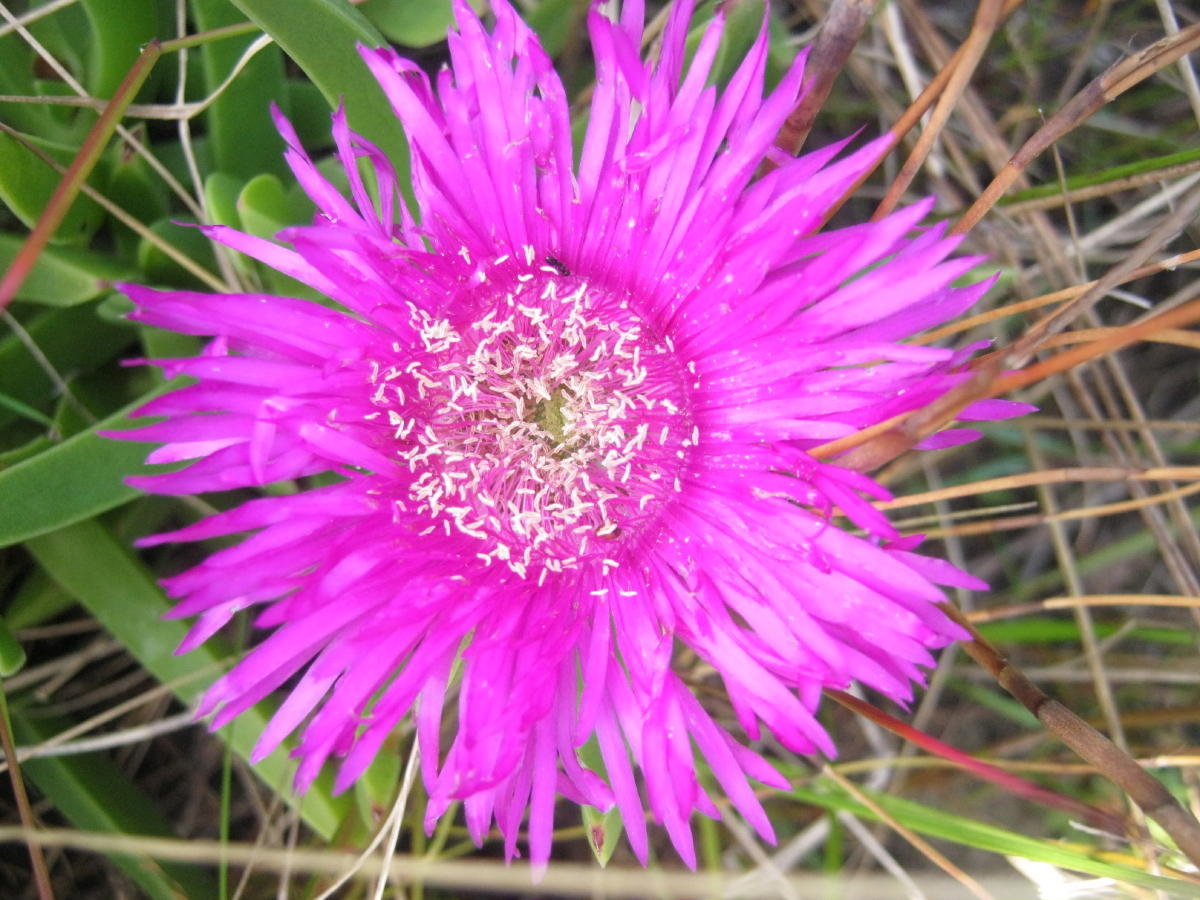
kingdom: Plantae
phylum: Tracheophyta
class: Magnoliopsida
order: Caryophyllales
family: Aizoaceae
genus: Carpobrotus
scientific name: Carpobrotus deliciosus
